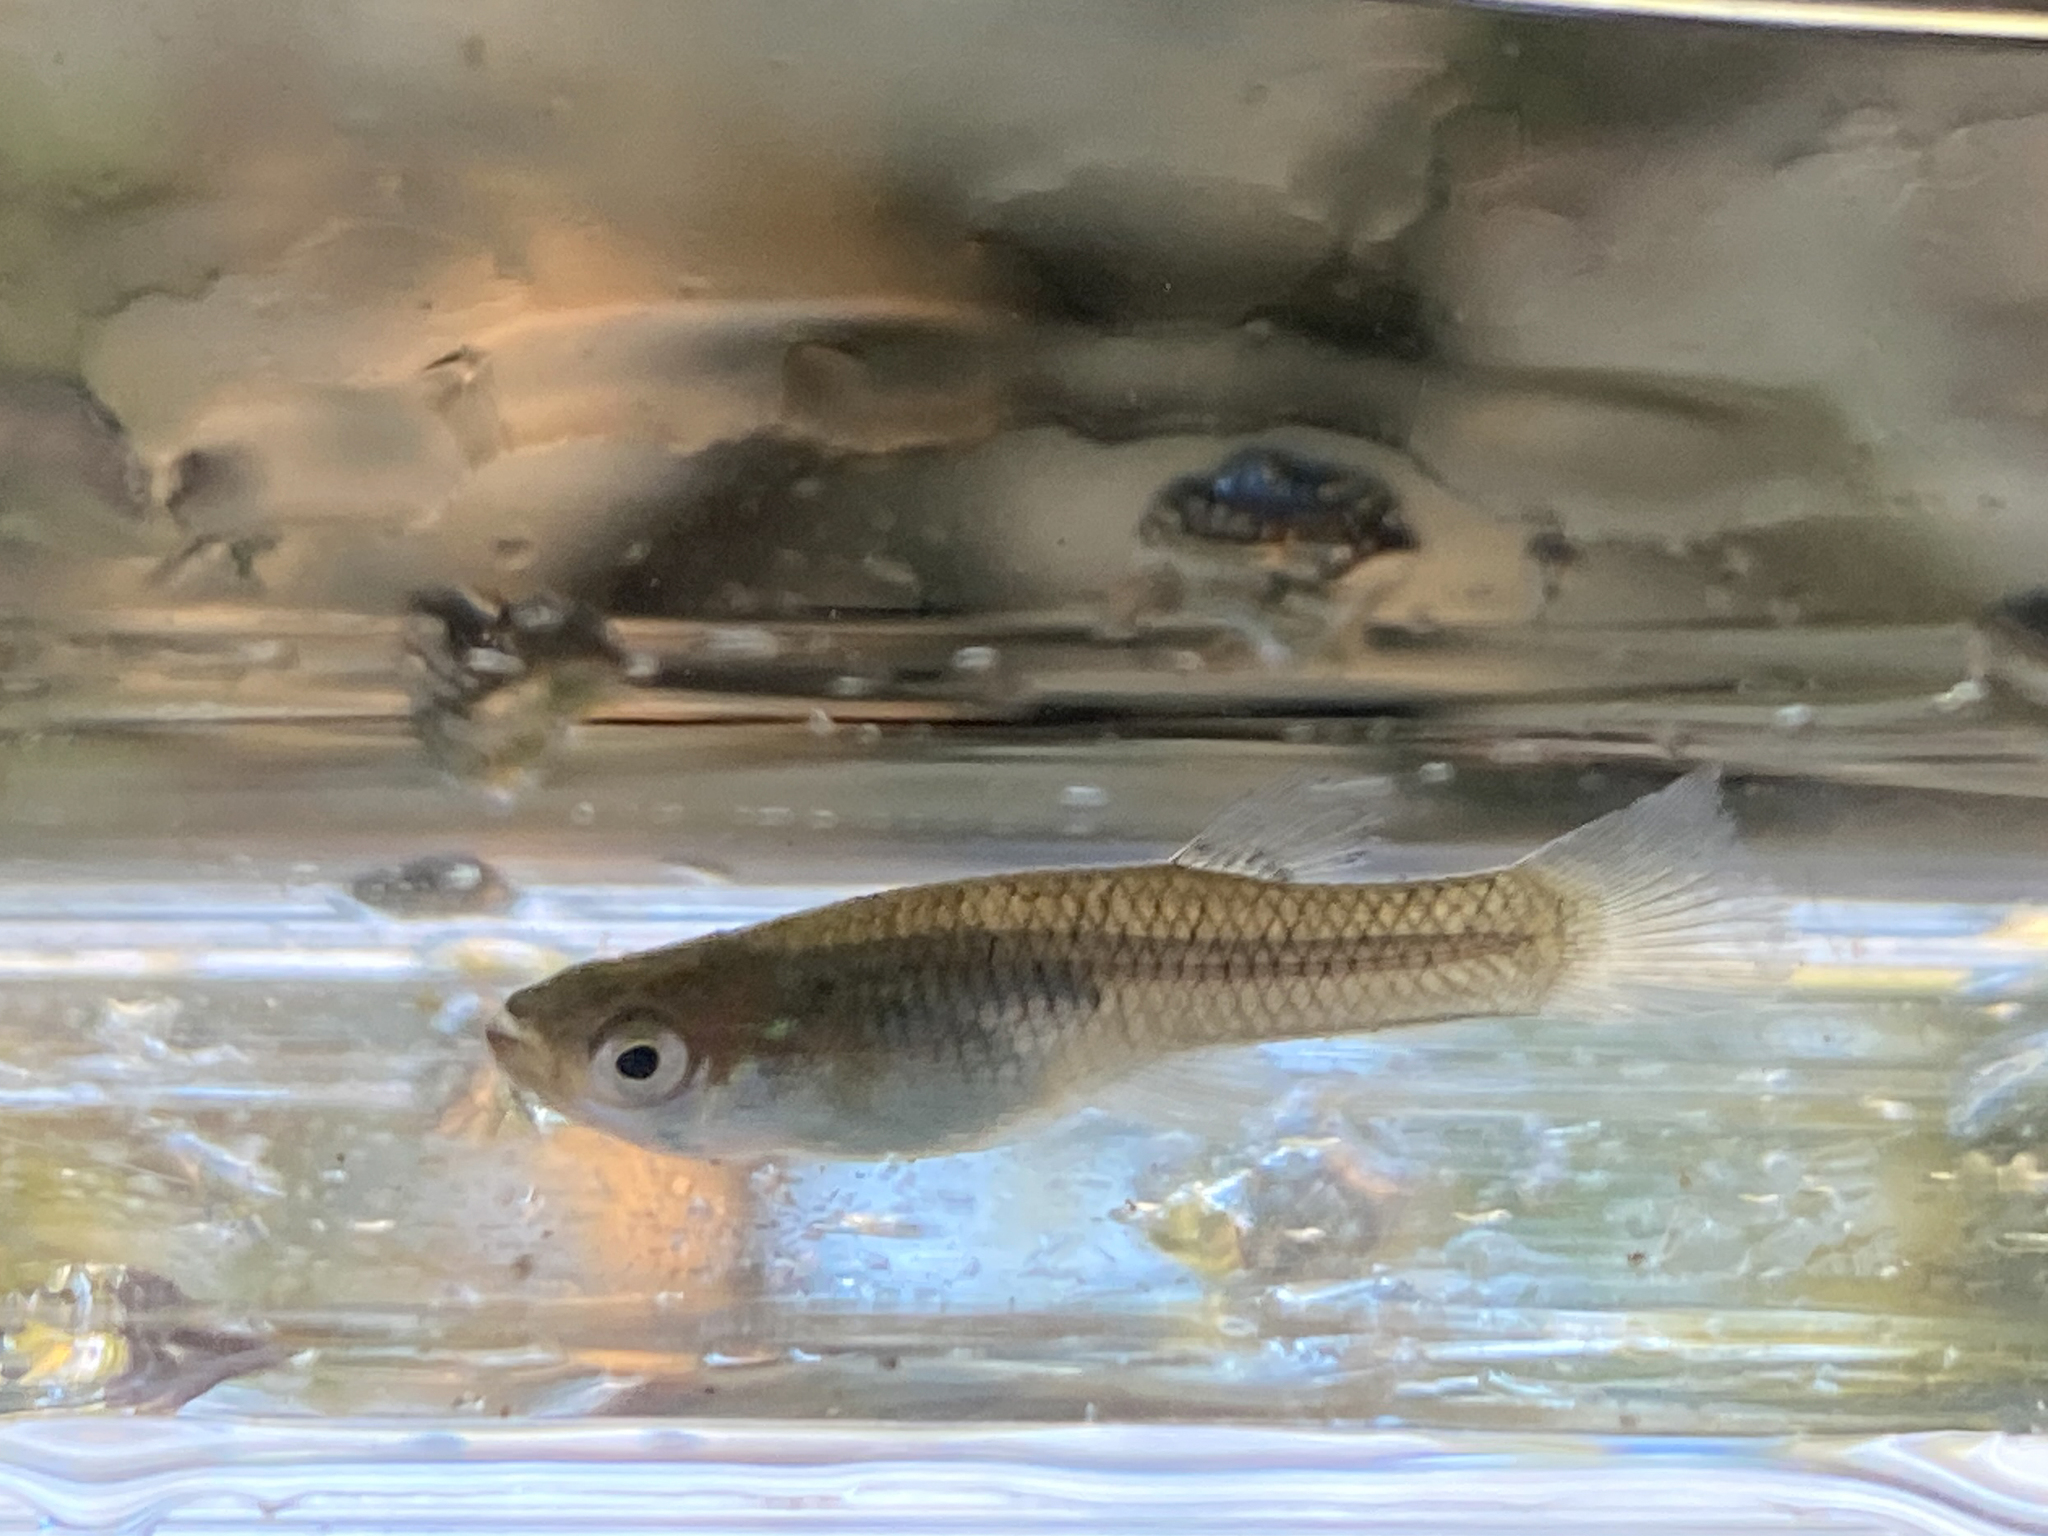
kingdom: Animalia
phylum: Chordata
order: Cyprinodontiformes
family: Poeciliidae
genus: Gambusia
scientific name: Gambusia holbrooki
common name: Eastern mosquitofish
